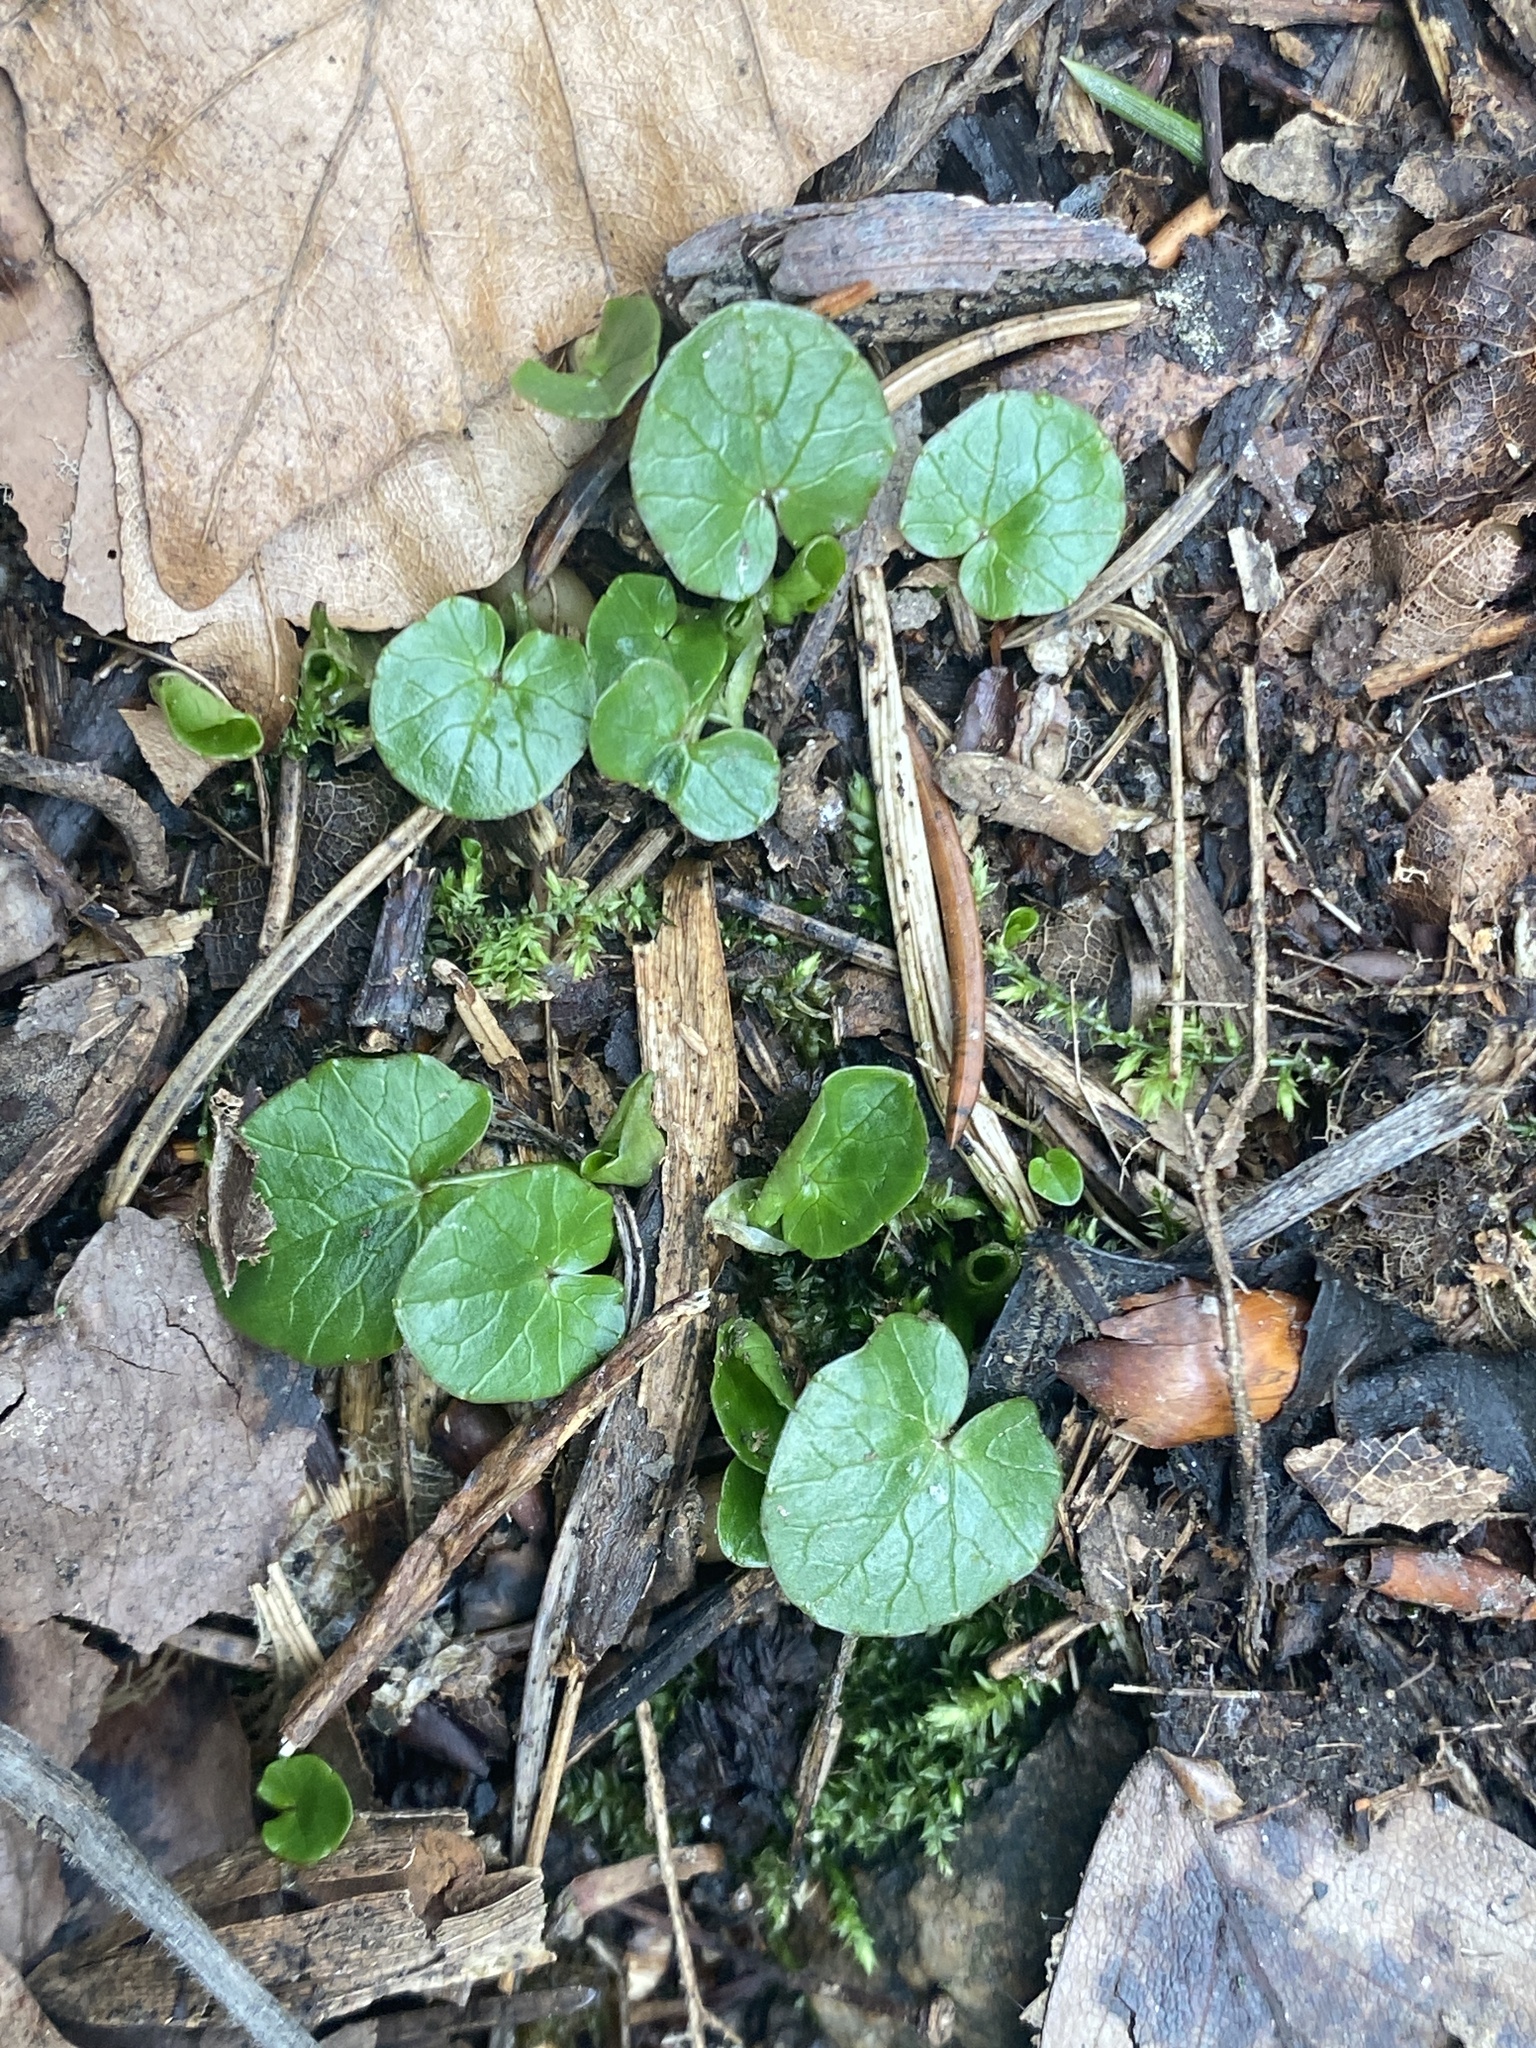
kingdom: Plantae
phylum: Tracheophyta
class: Magnoliopsida
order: Ranunculales
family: Ranunculaceae
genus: Ficaria
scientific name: Ficaria verna
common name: Lesser celandine
